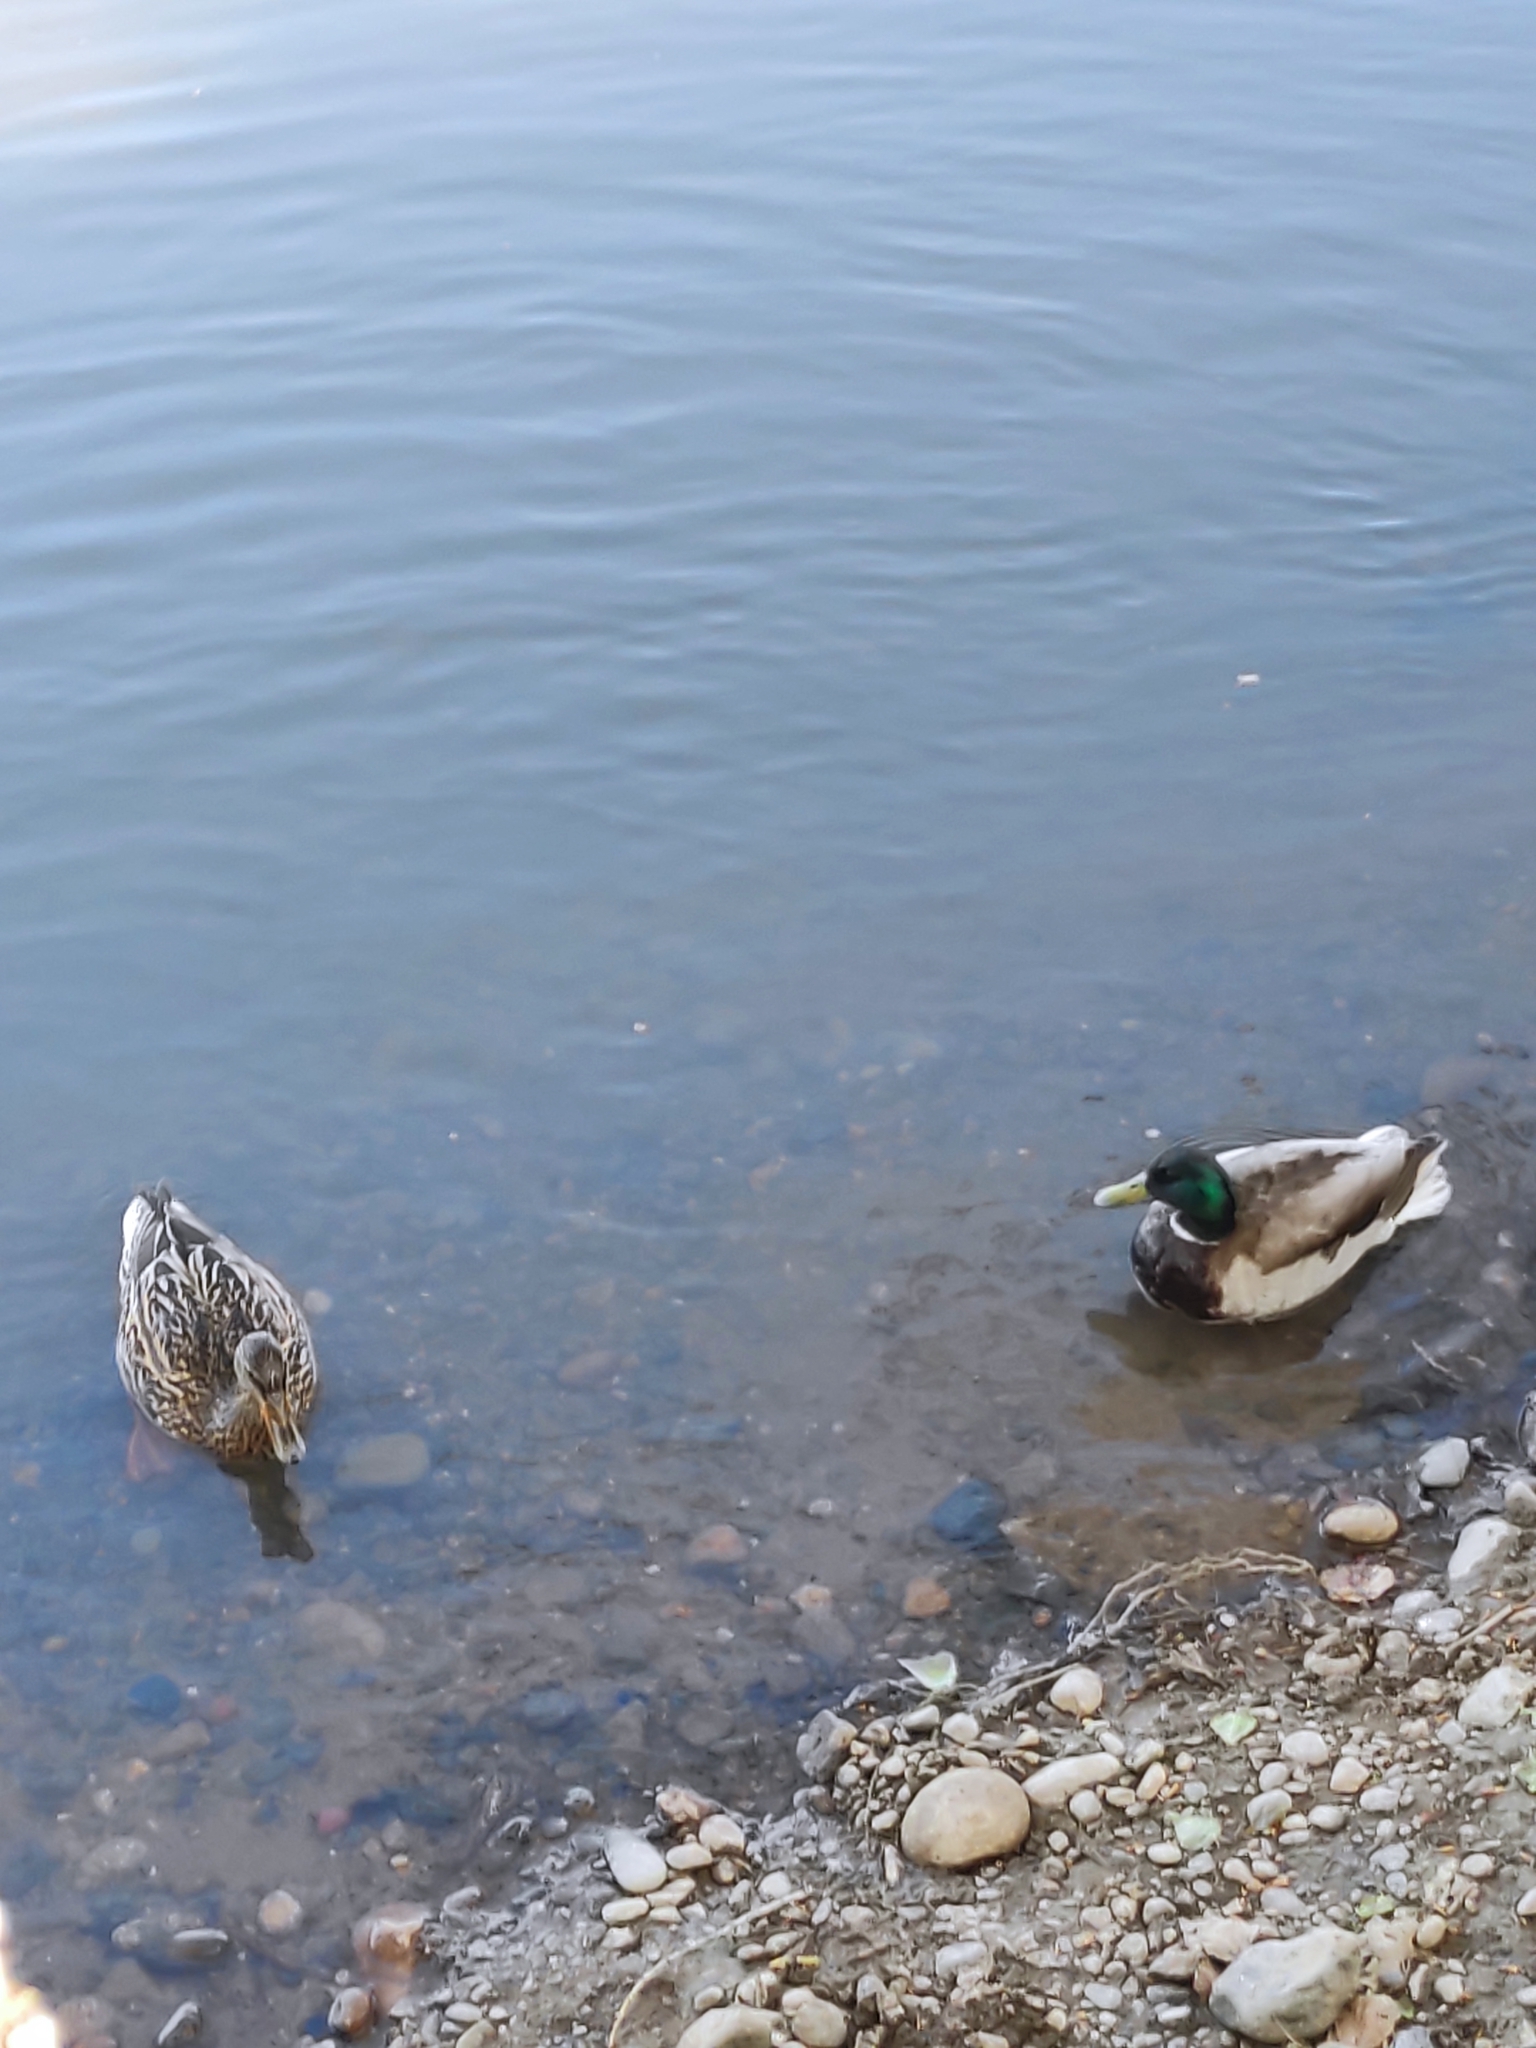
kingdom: Animalia
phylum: Chordata
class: Aves
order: Anseriformes
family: Anatidae
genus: Anas
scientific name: Anas platyrhynchos
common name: Mallard
